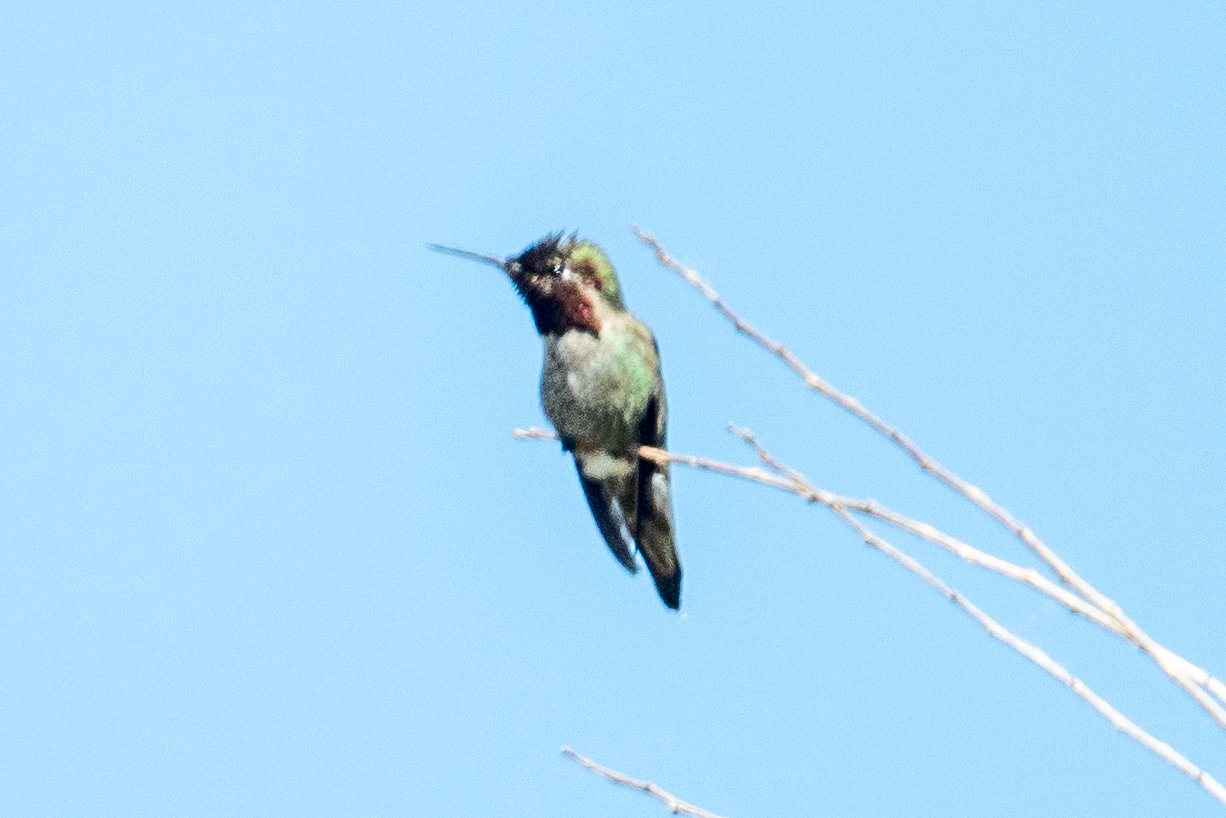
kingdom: Animalia
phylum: Chordata
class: Aves
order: Apodiformes
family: Trochilidae
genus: Calypte
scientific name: Calypte anna
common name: Anna's hummingbird
